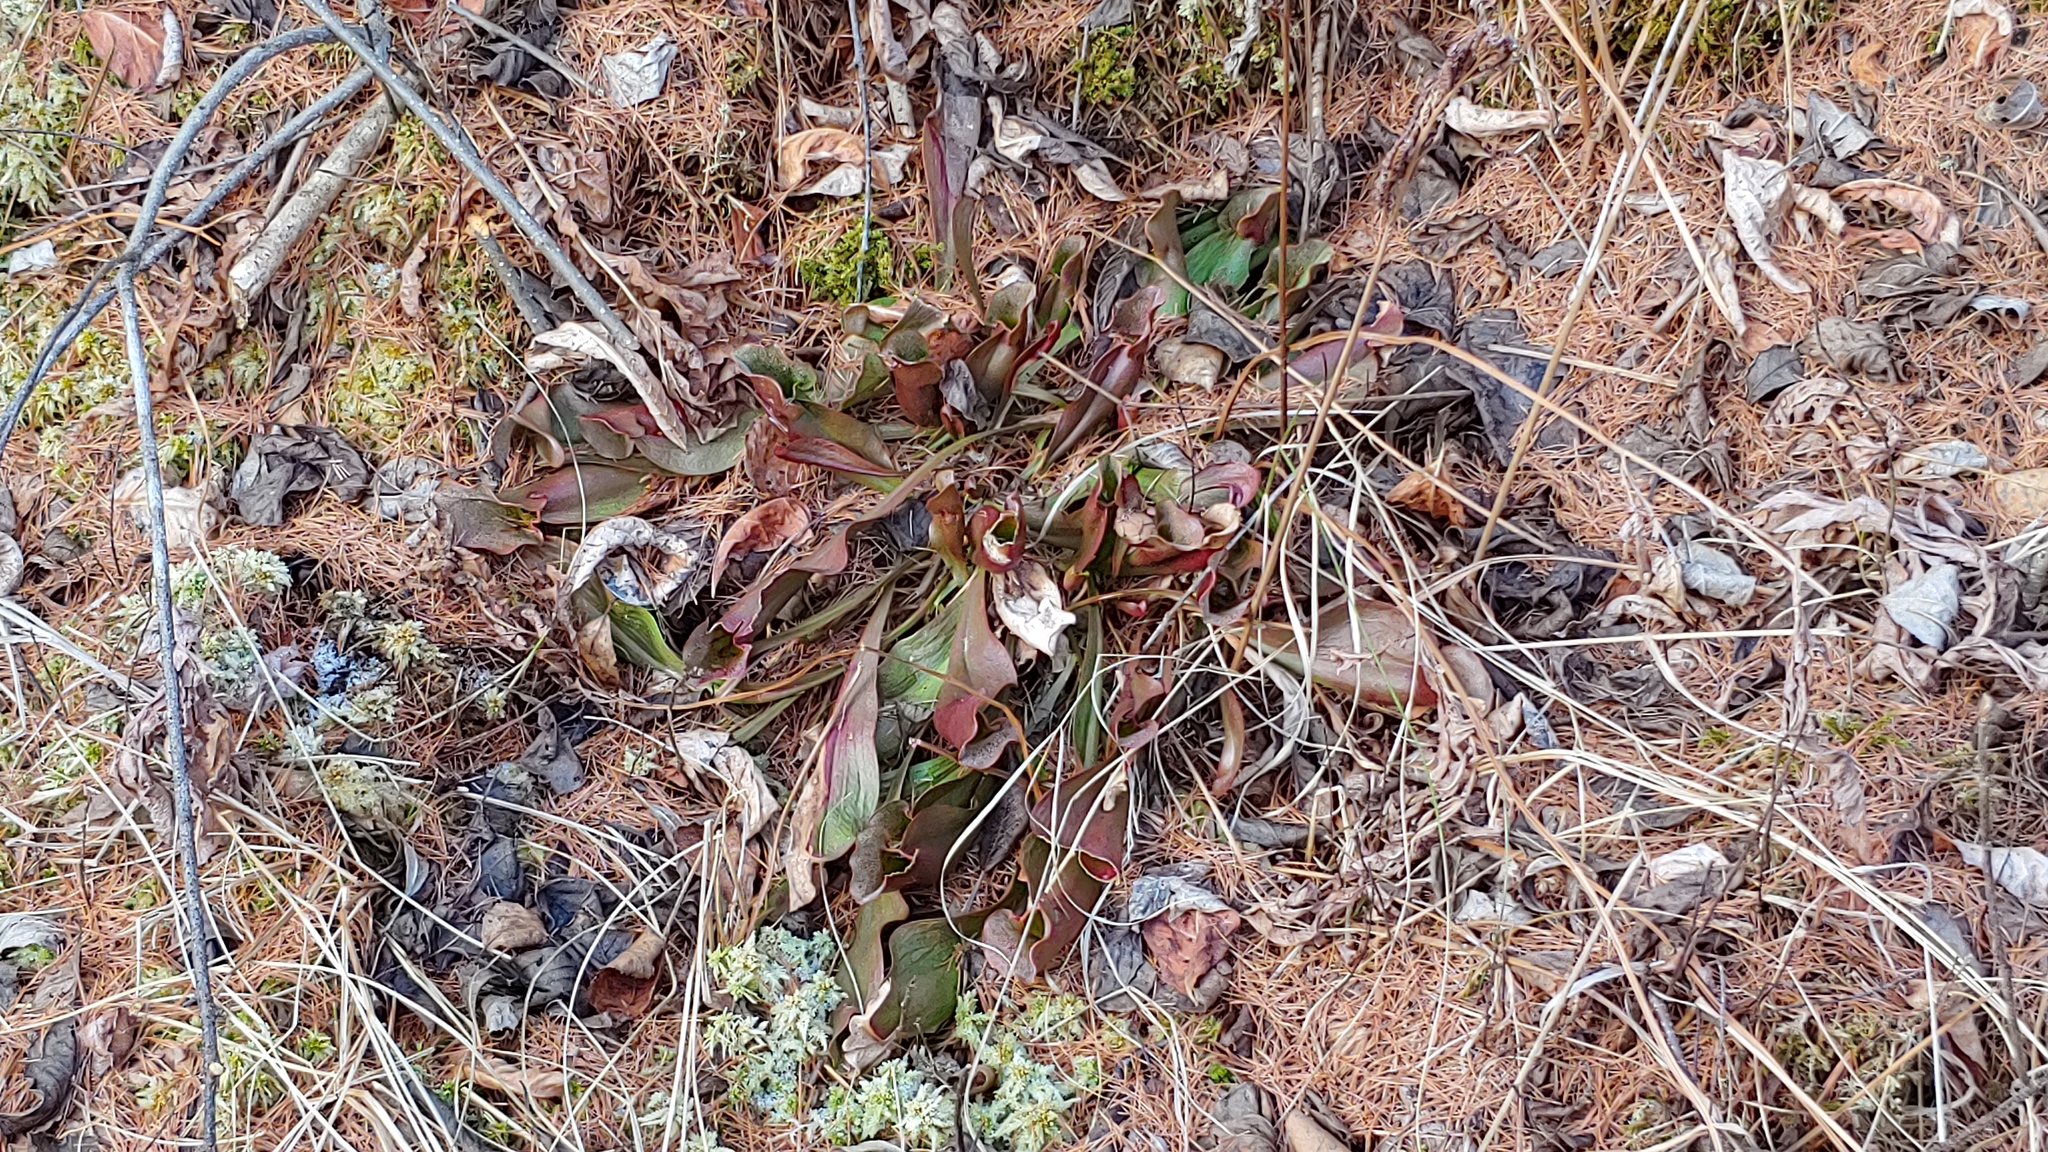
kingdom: Plantae
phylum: Tracheophyta
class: Magnoliopsida
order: Ericales
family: Sarraceniaceae
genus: Sarracenia
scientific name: Sarracenia purpurea
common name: Pitcherplant
